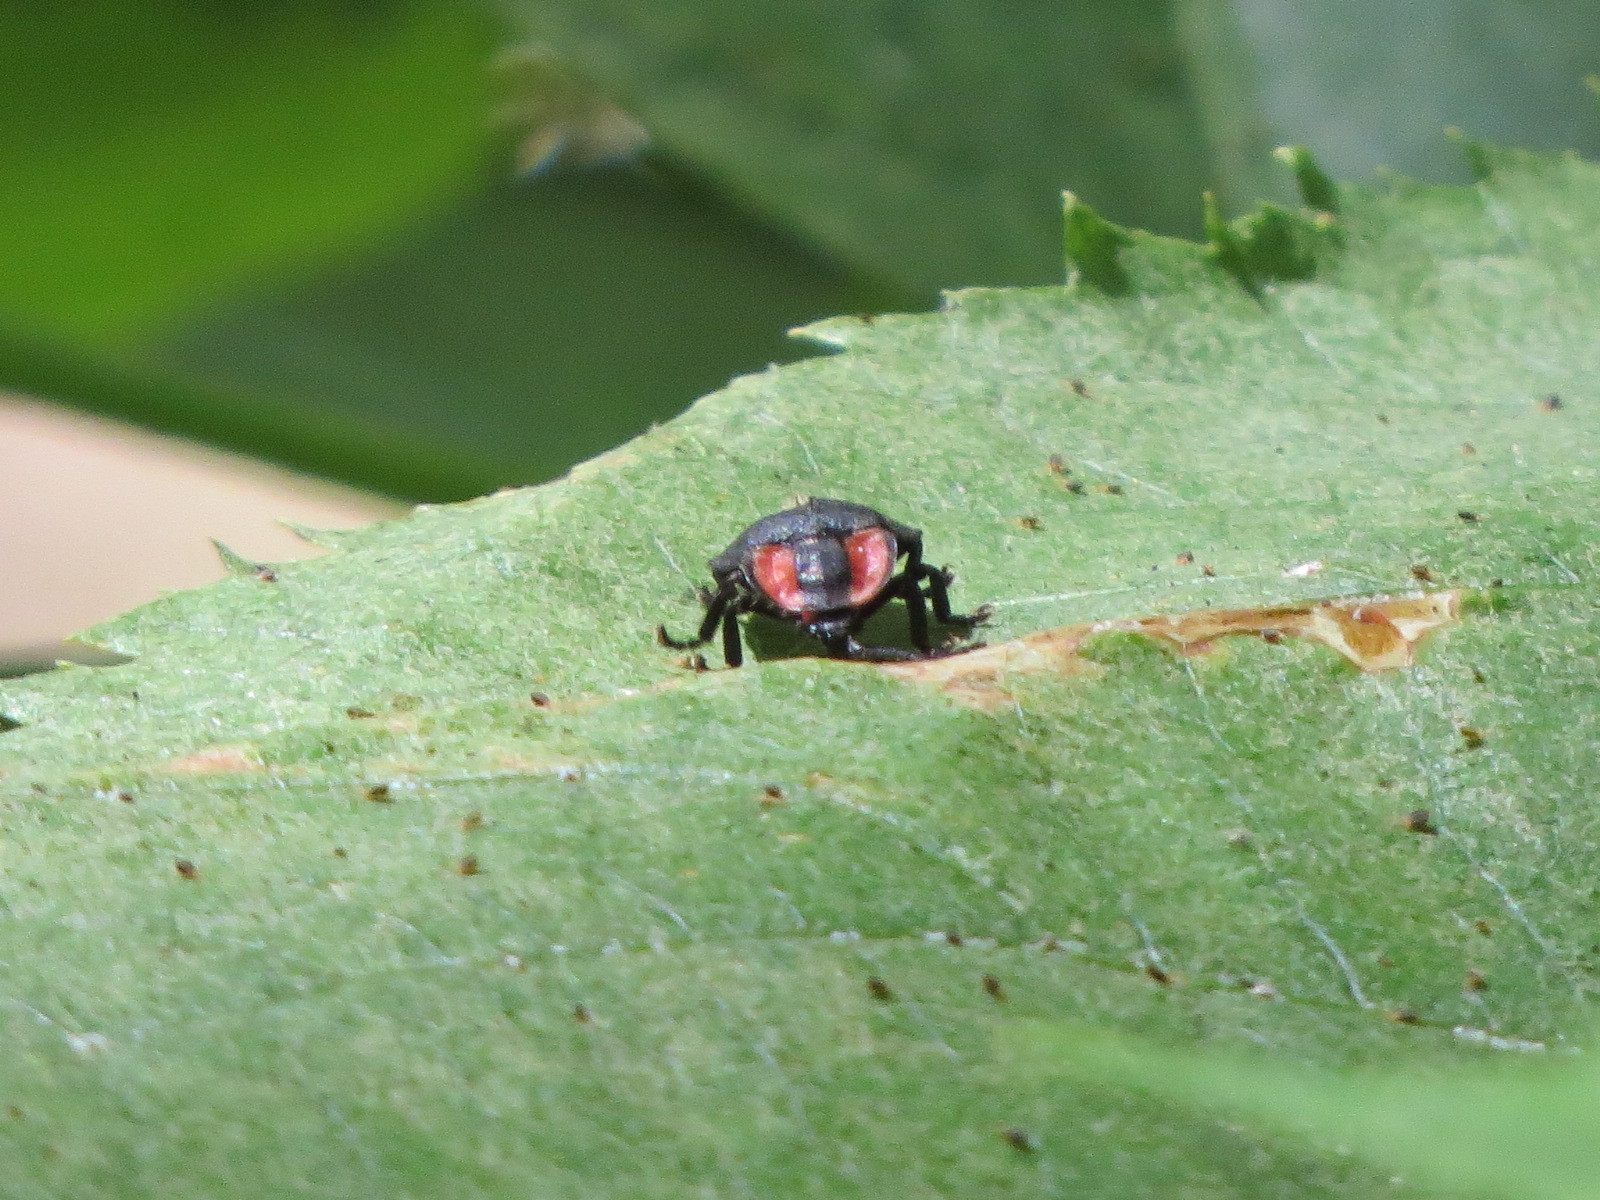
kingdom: Animalia
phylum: Arthropoda
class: Insecta
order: Coleoptera
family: Lampyridae
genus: Ellychnia
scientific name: Ellychnia megista
